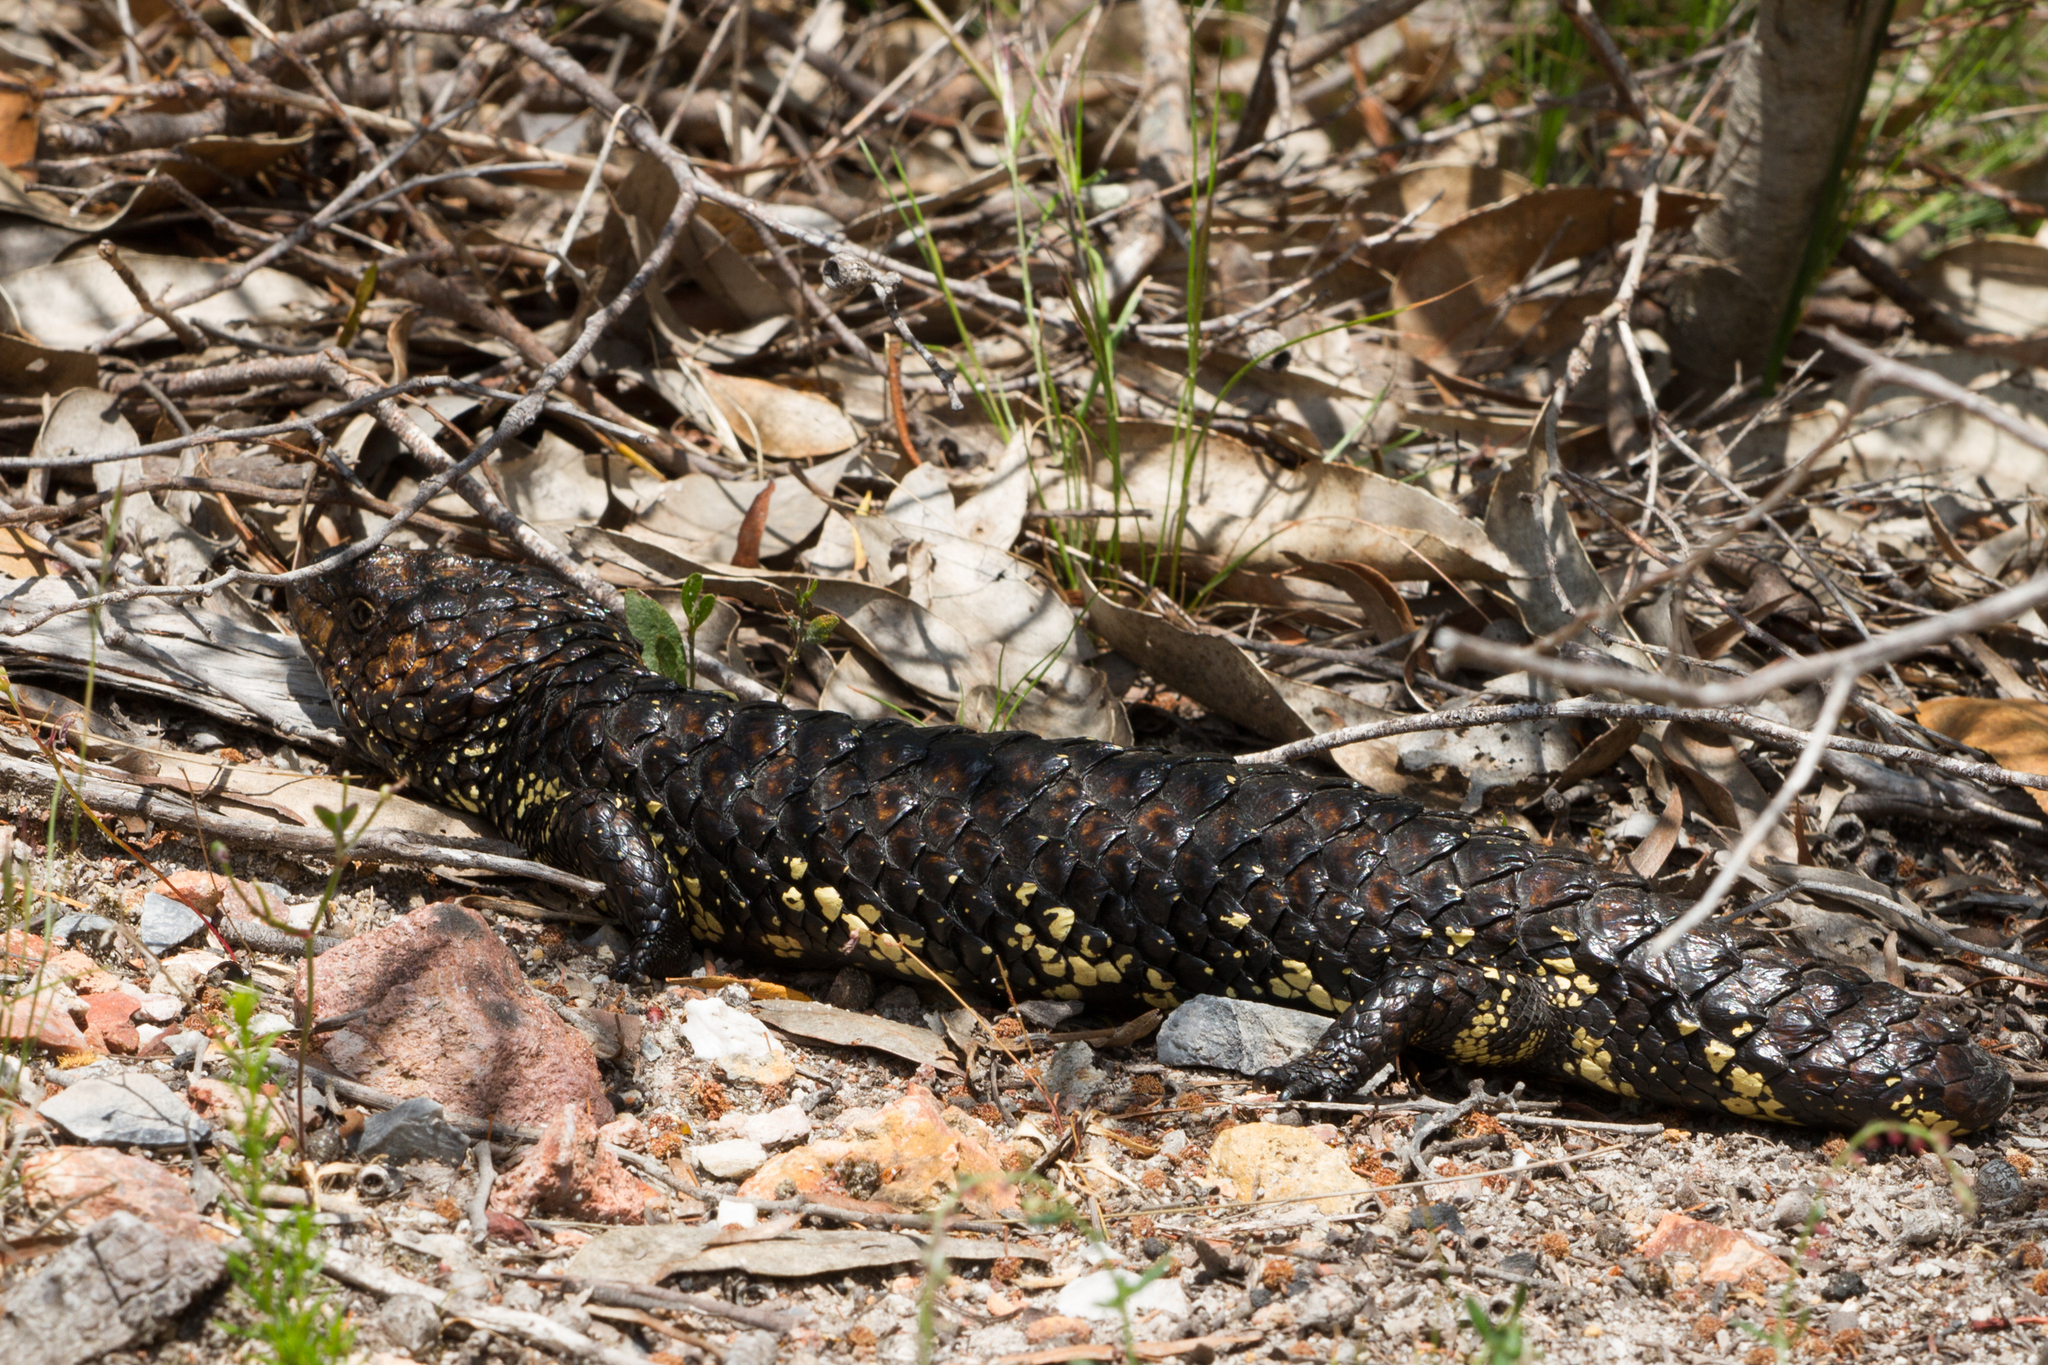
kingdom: Animalia
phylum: Chordata
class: Squamata
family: Scincidae
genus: Tiliqua
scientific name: Tiliqua rugosa
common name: Pinecone lizard
